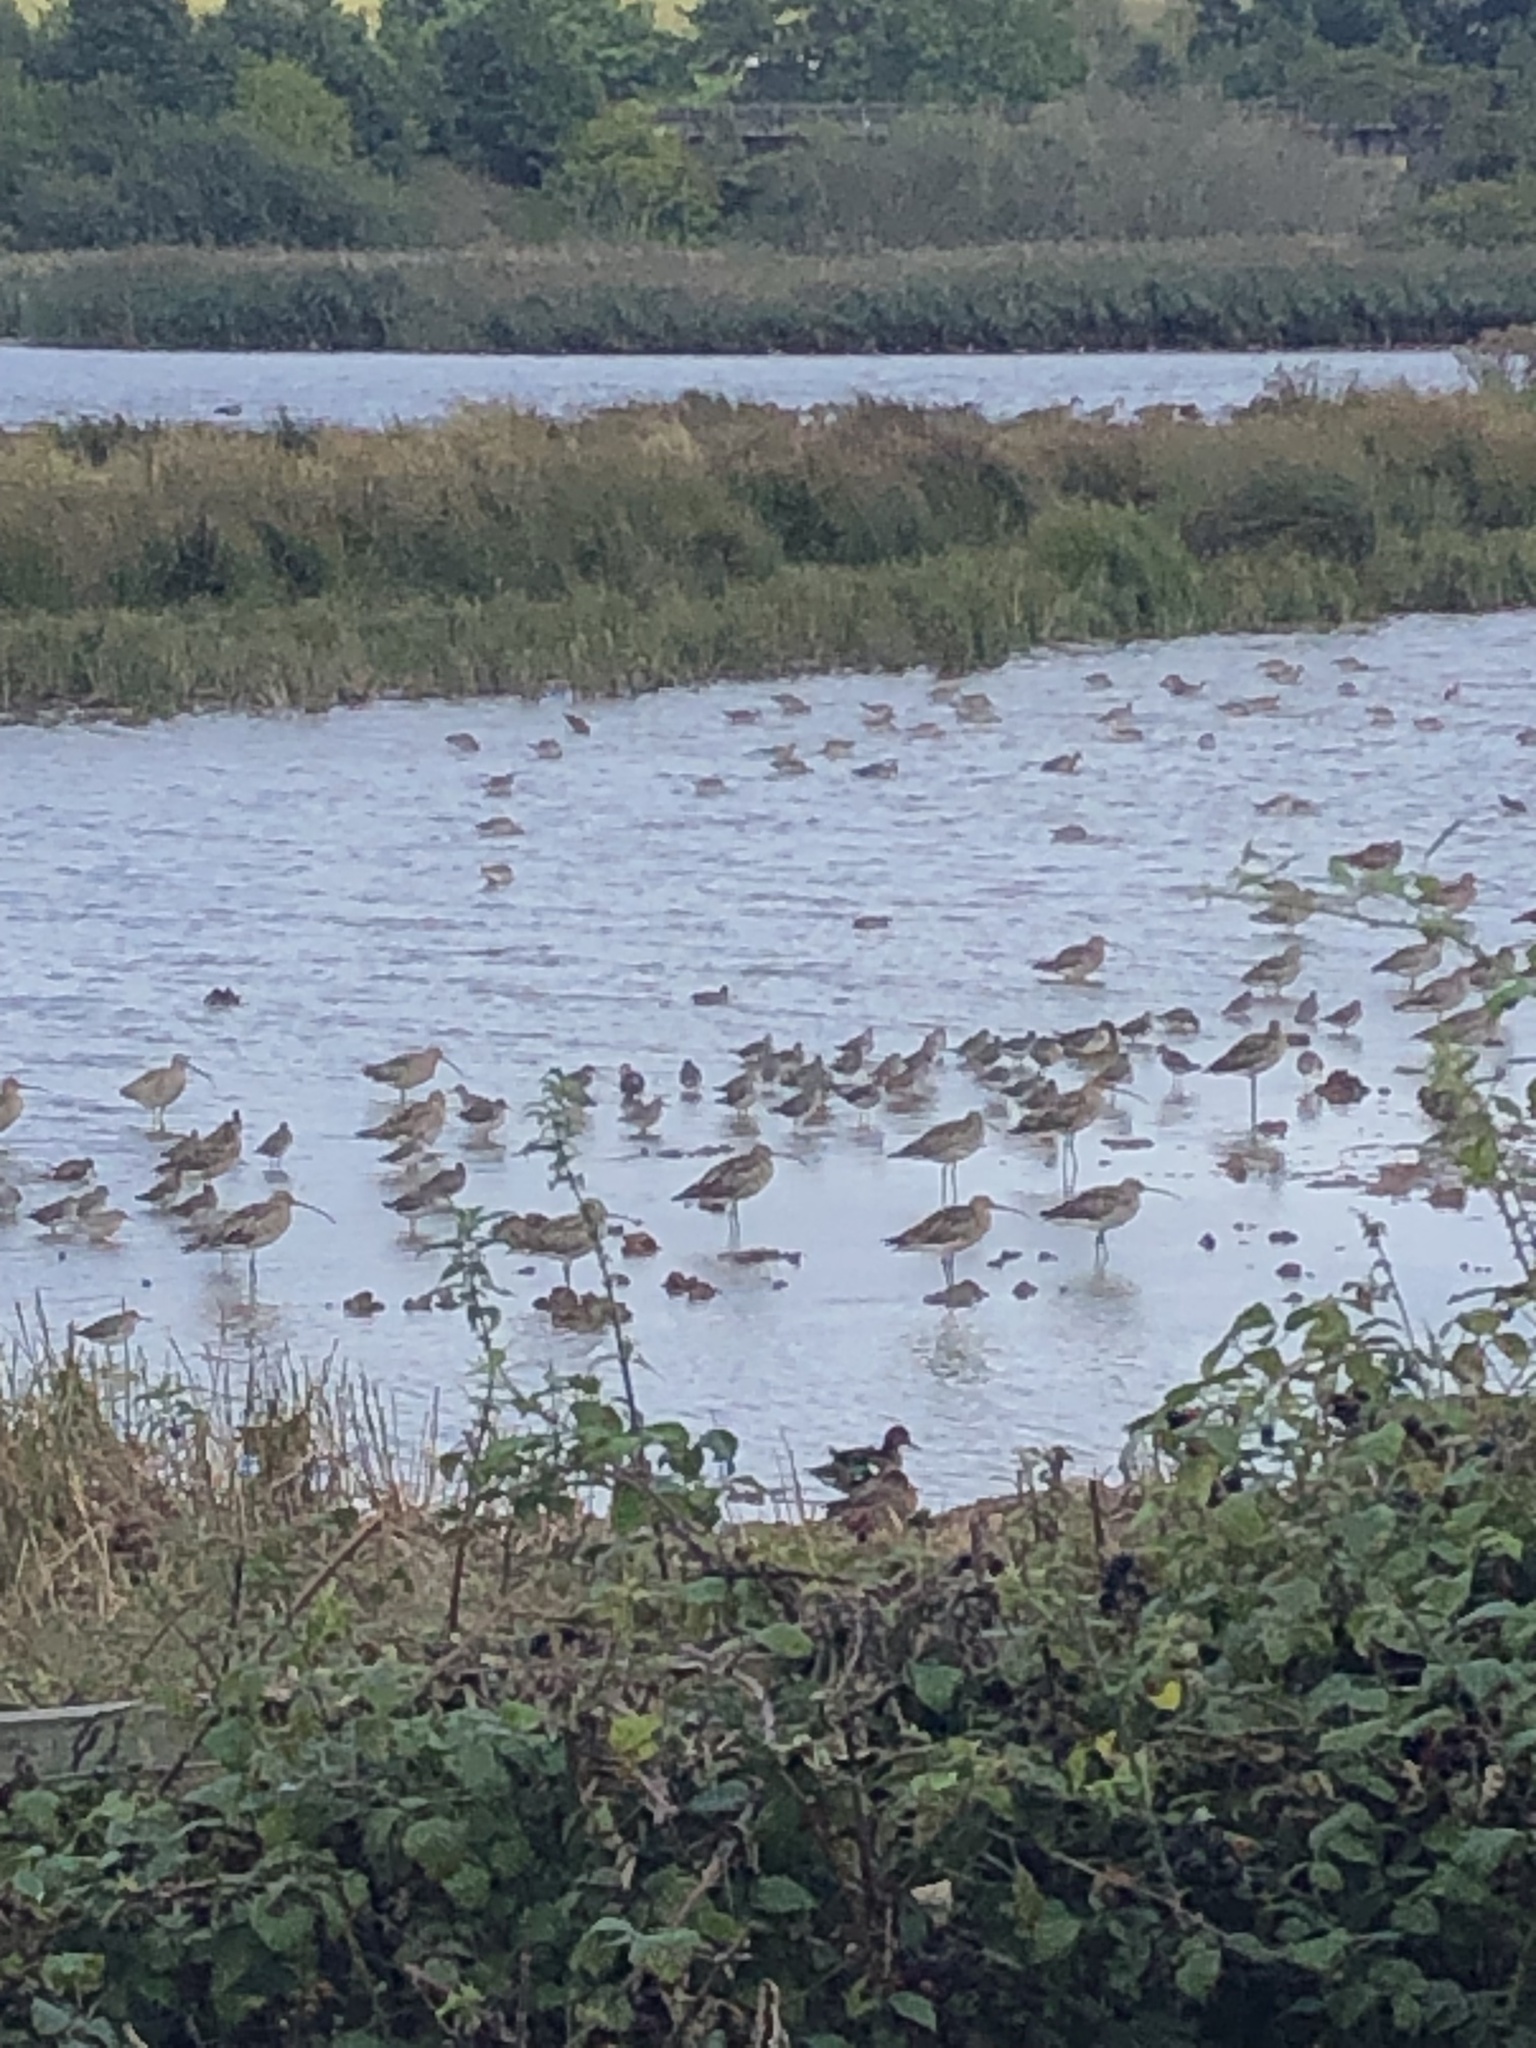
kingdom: Animalia
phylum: Chordata
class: Aves
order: Charadriiformes
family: Scolopacidae
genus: Numenius
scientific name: Numenius arquata
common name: Eurasian curlew
